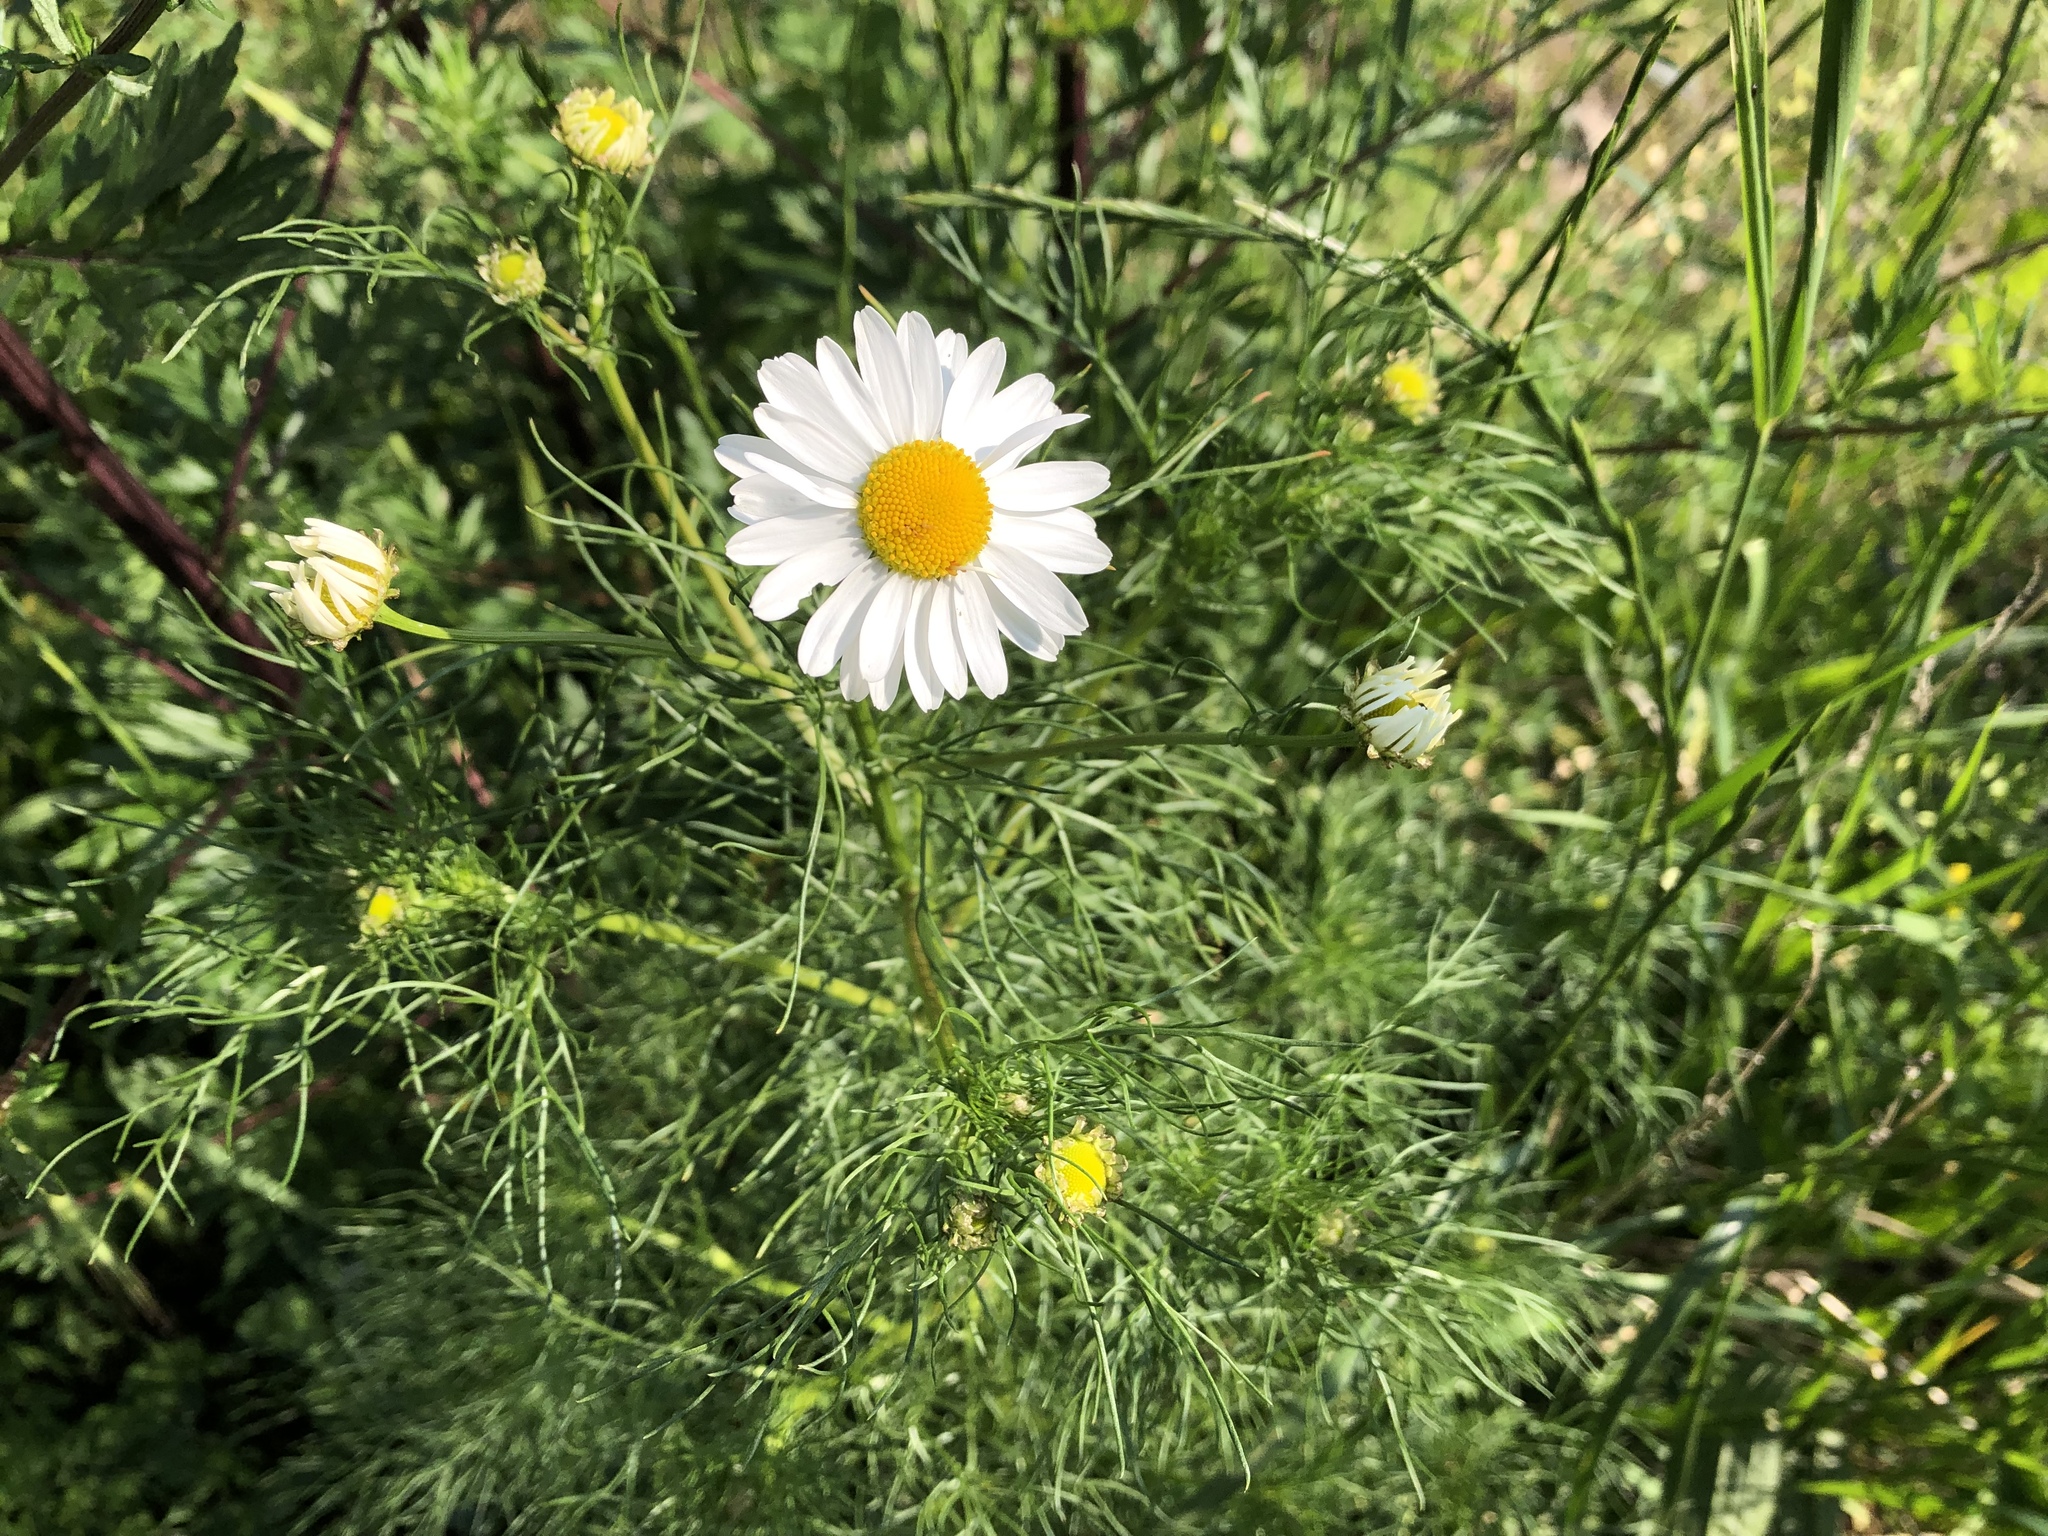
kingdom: Plantae
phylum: Tracheophyta
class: Magnoliopsida
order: Asterales
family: Asteraceae
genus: Tripleurospermum
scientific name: Tripleurospermum inodorum
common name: Scentless mayweed
